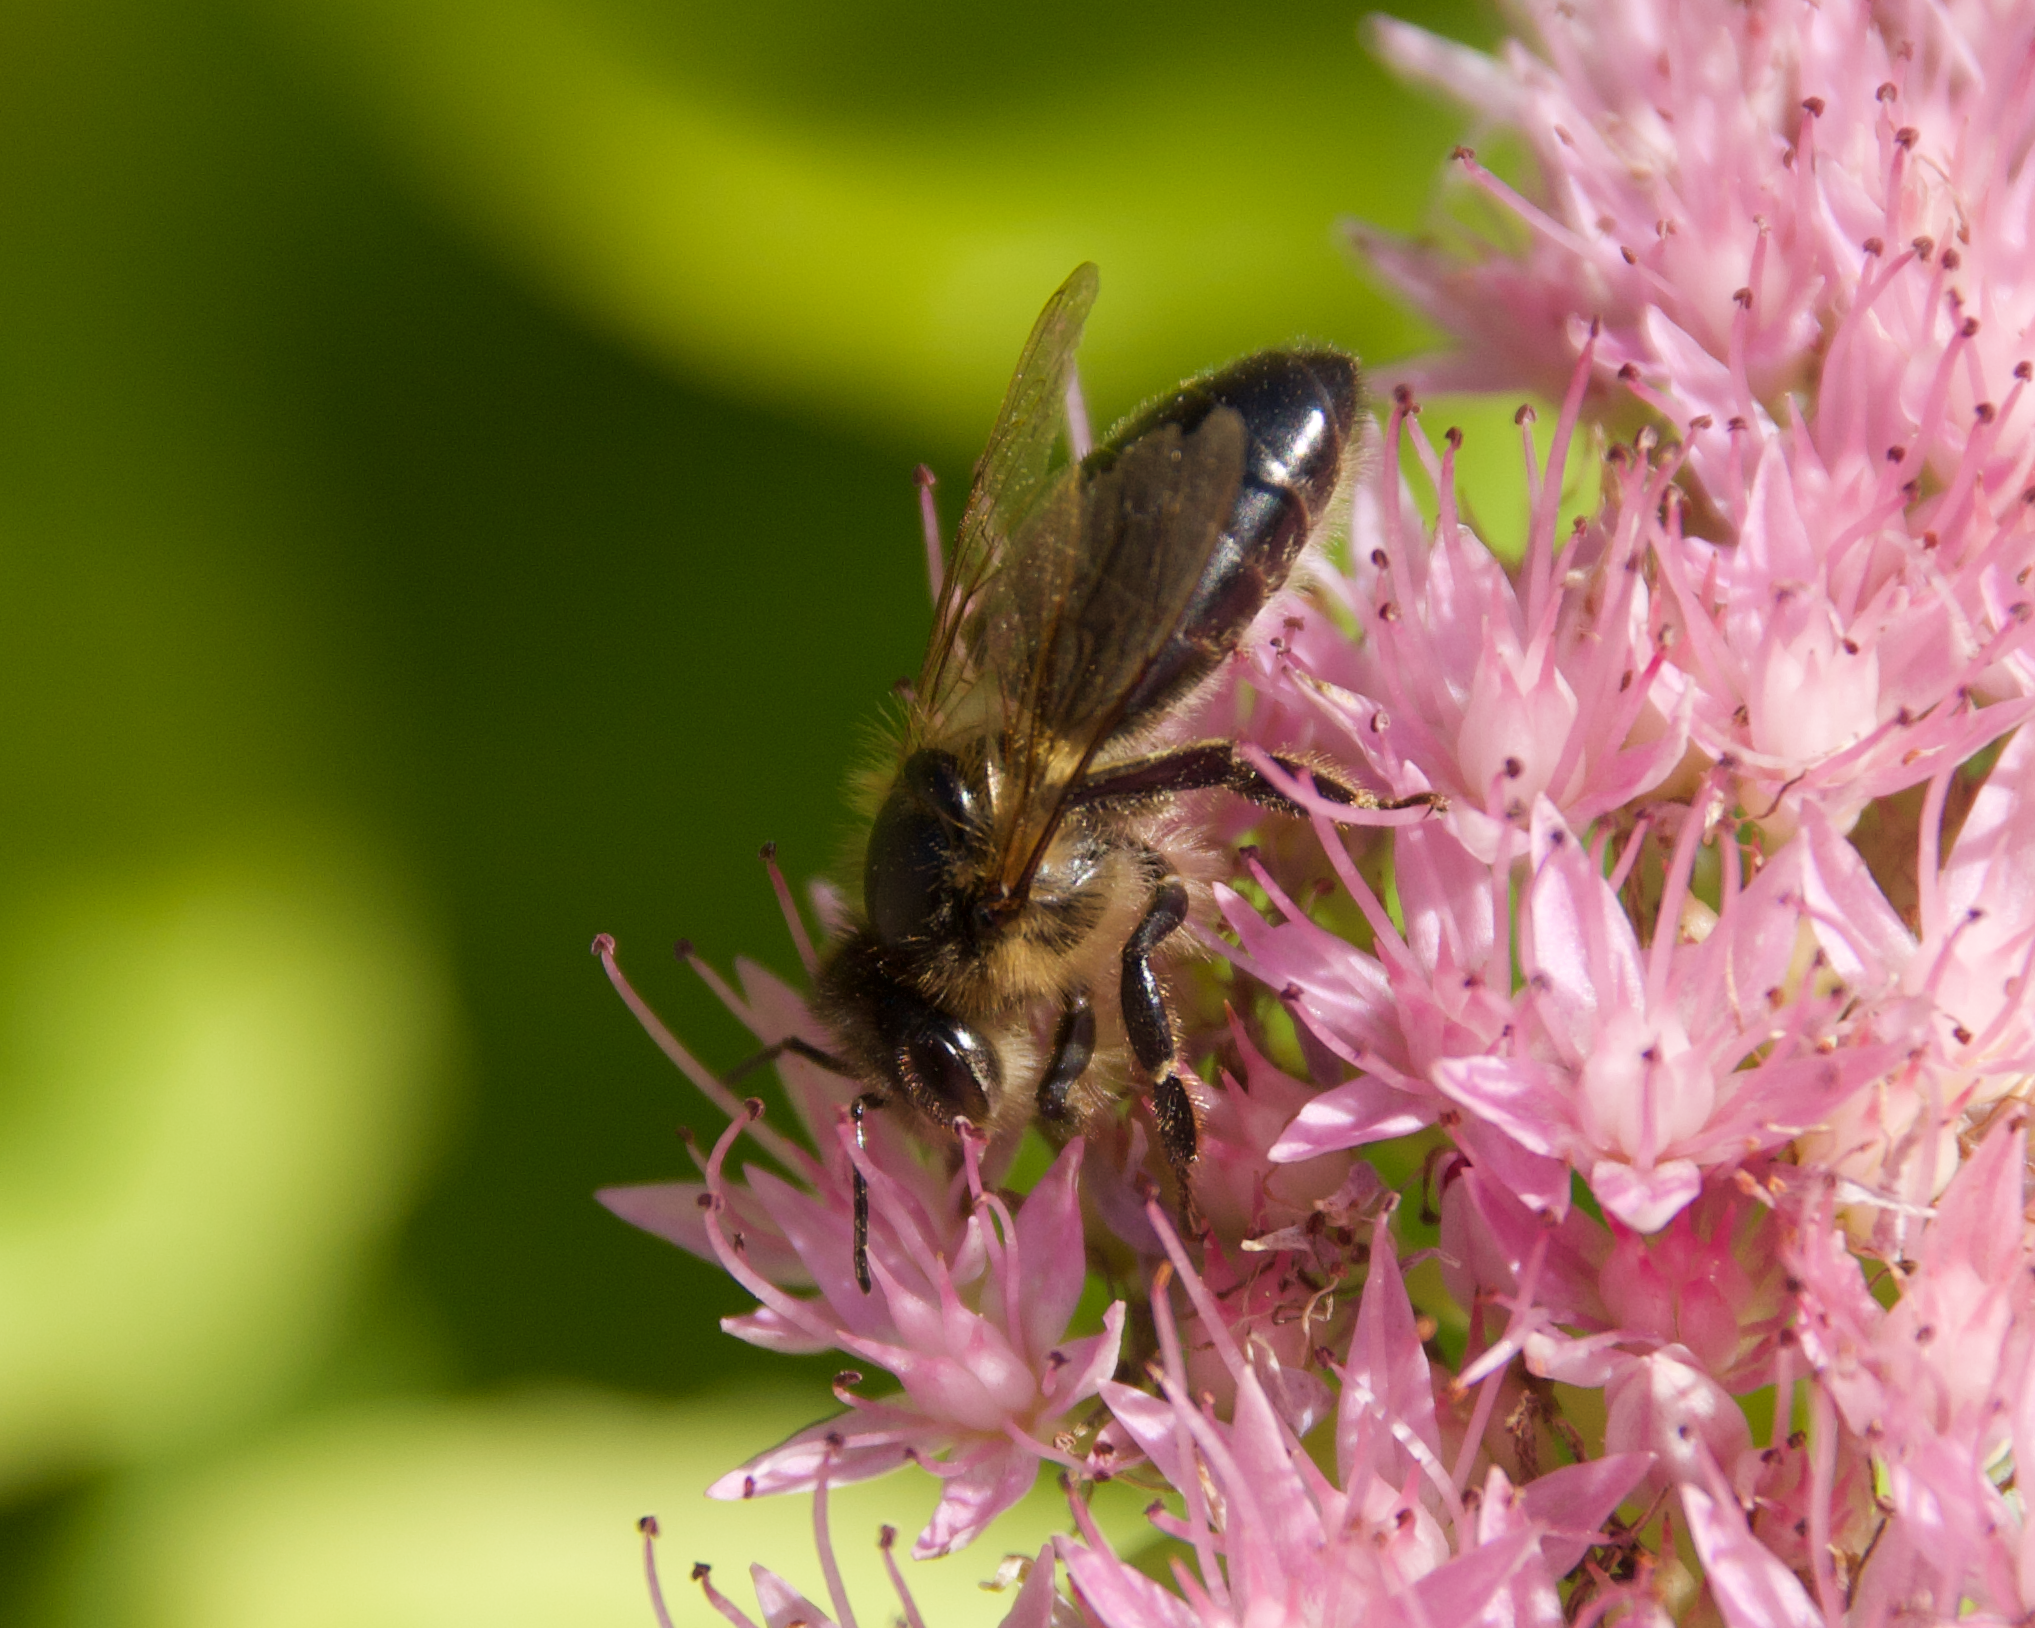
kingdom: Animalia
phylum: Arthropoda
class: Insecta
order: Hymenoptera
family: Apidae
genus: Apis
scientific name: Apis mellifera
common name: Honey bee
